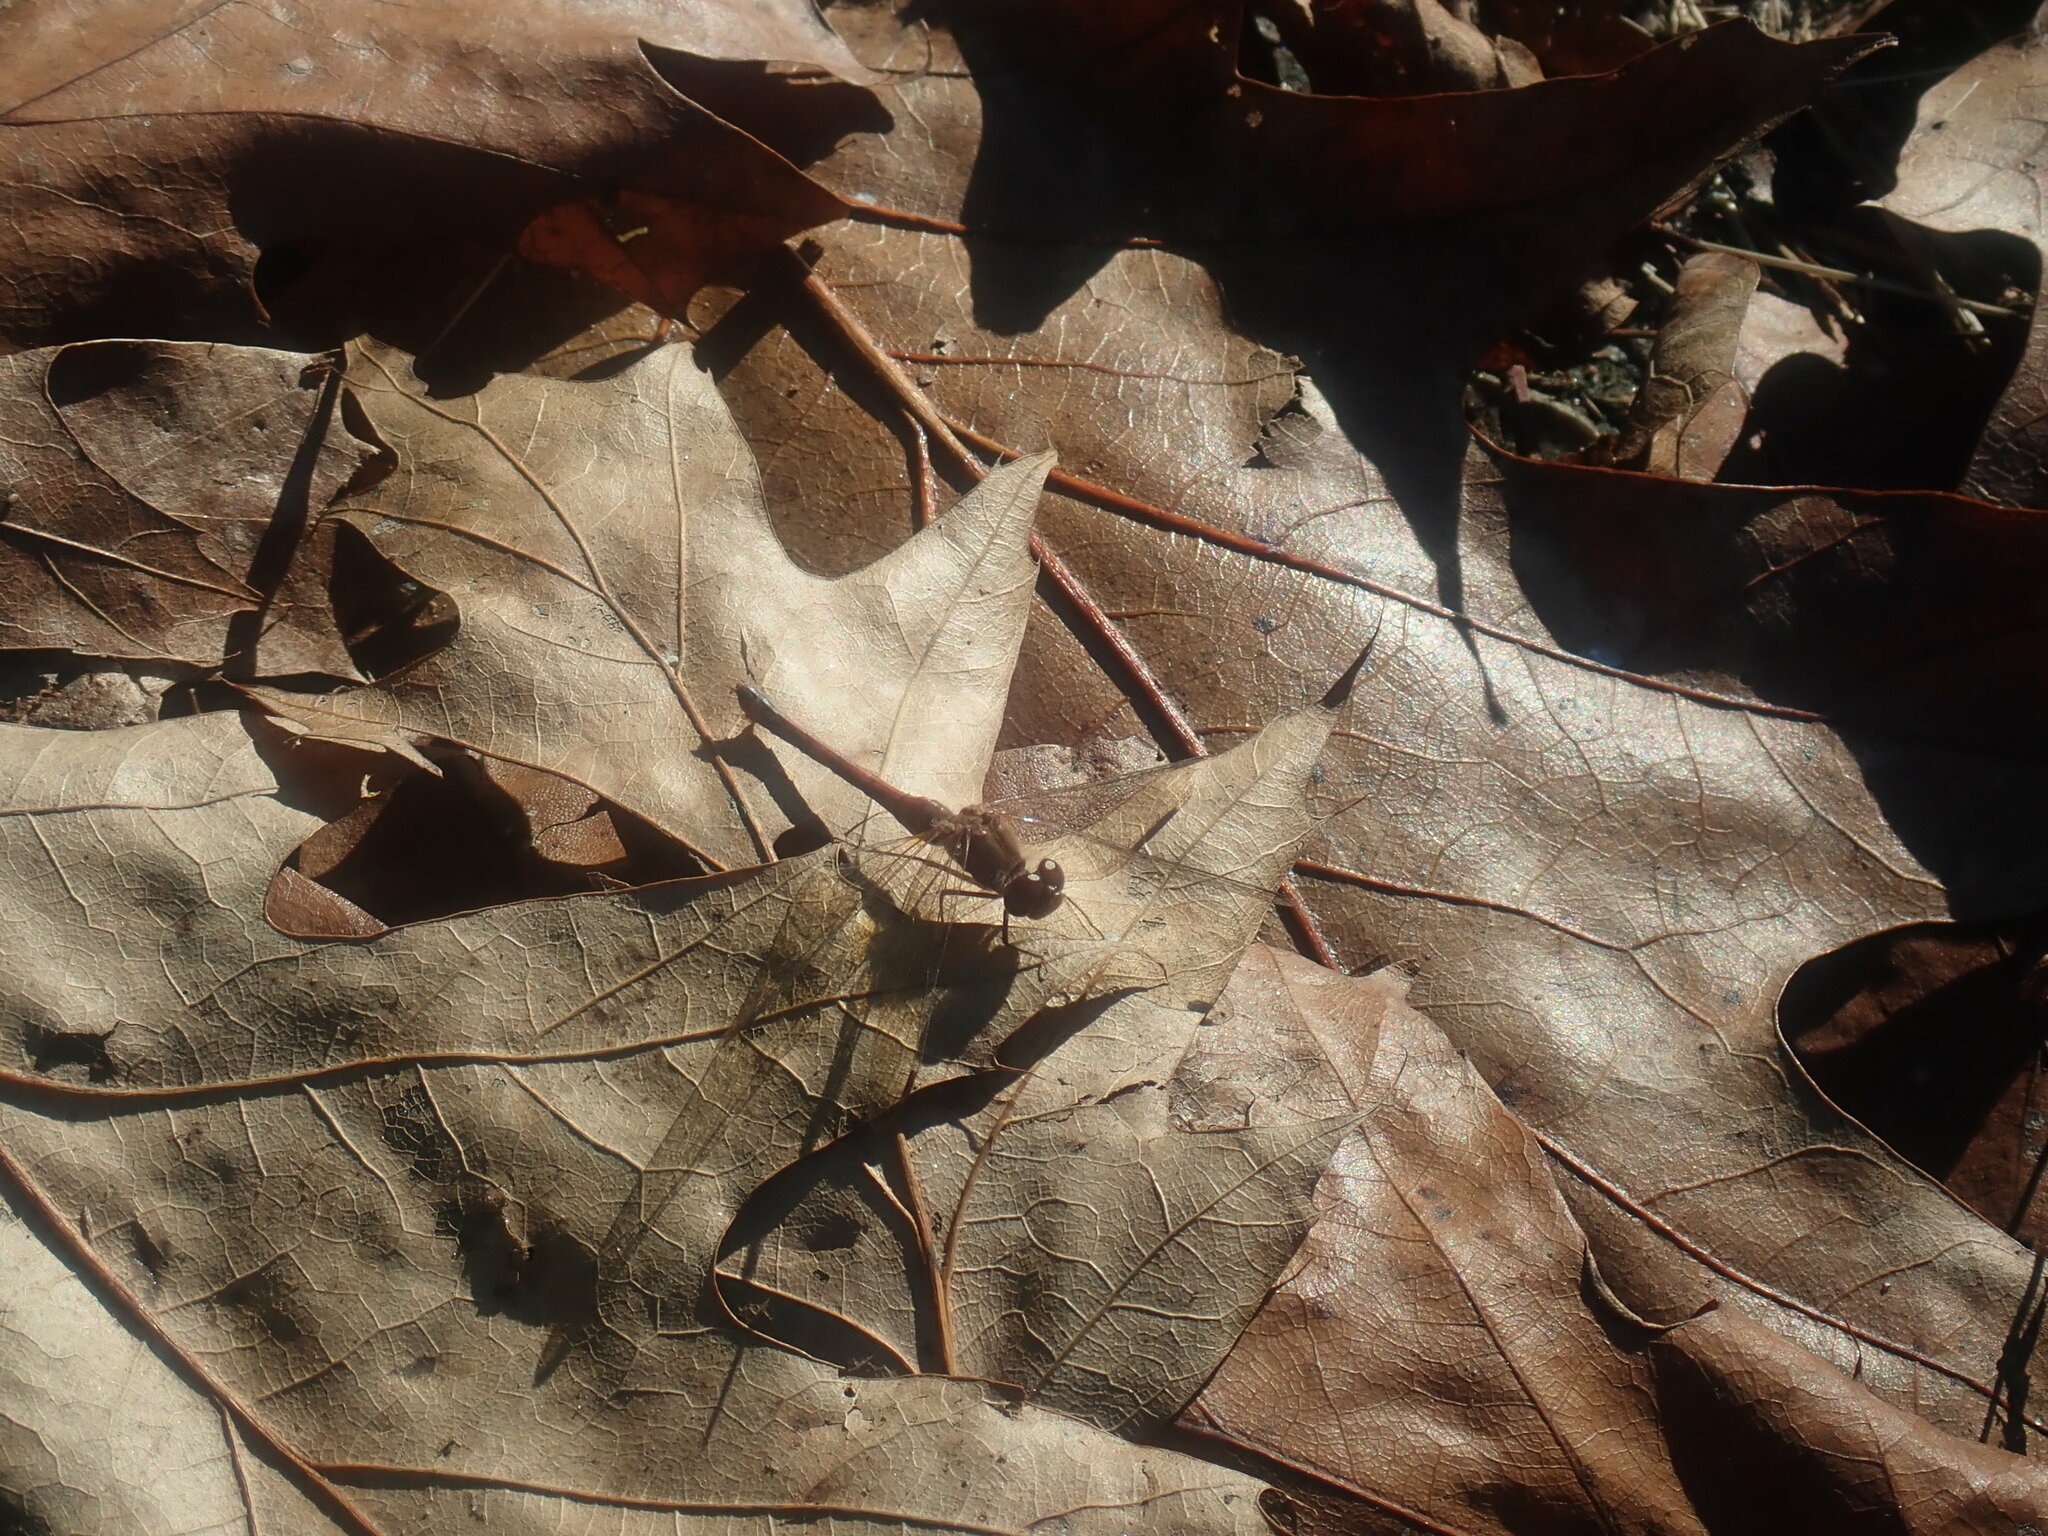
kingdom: Animalia
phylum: Arthropoda
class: Insecta
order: Odonata
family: Libellulidae
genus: Sympetrum
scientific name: Sympetrum vicinum
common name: Autumn meadowhawk
